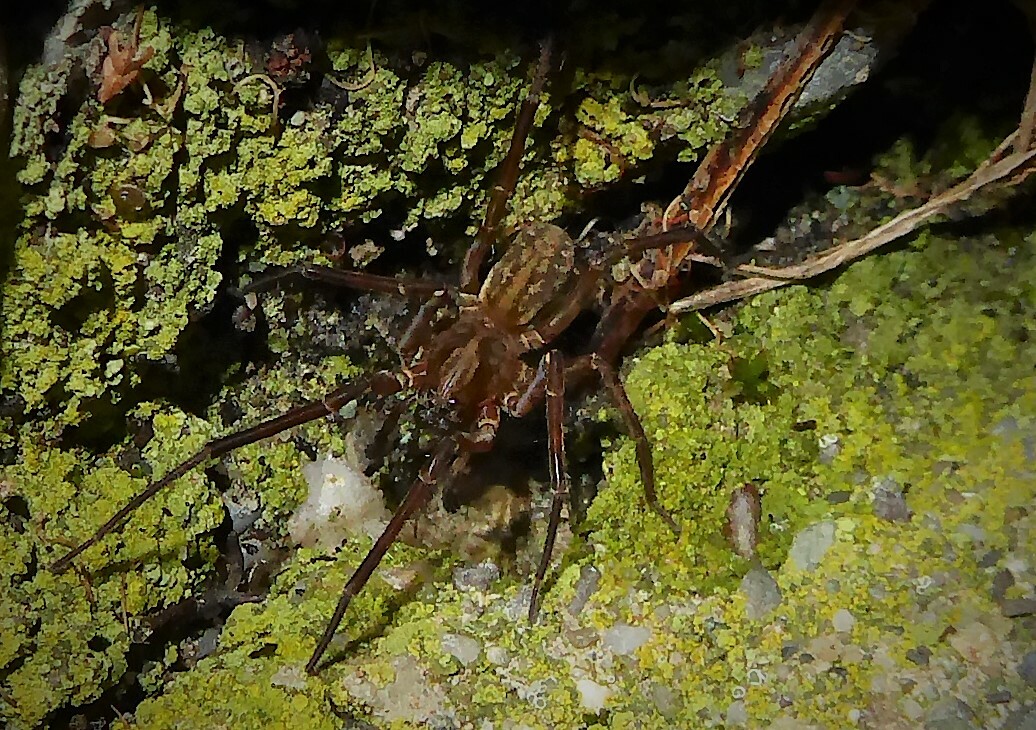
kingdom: Animalia
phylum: Arthropoda
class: Arachnida
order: Araneae
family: Lycosidae
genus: Allotrochosina
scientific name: Allotrochosina schauinslandi
